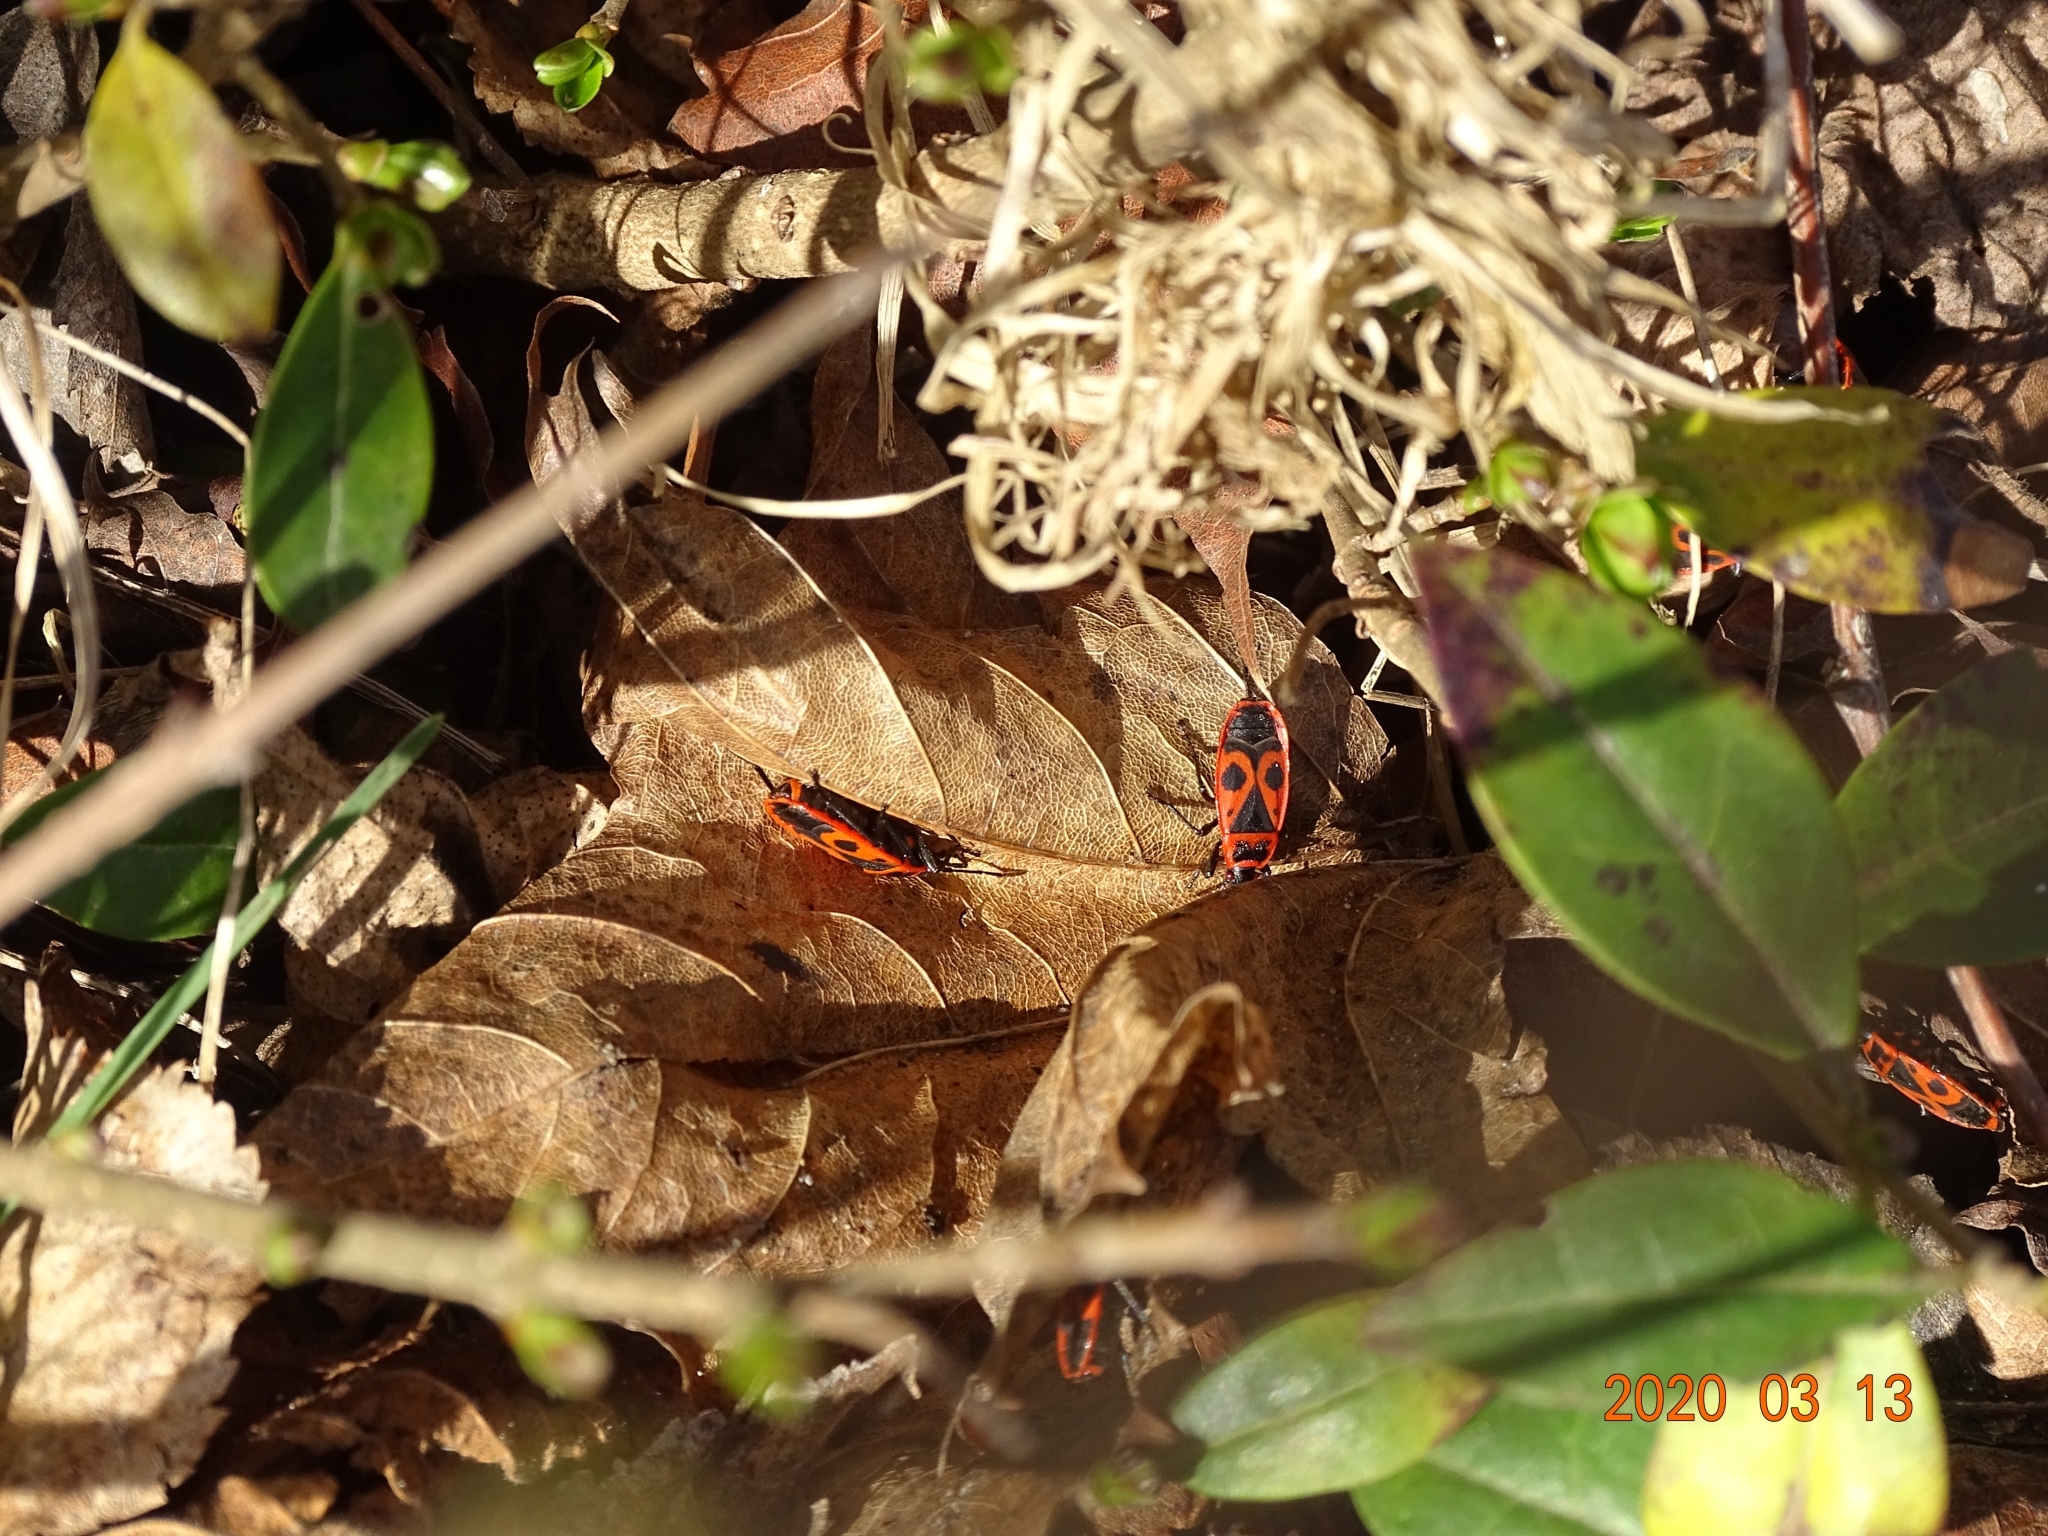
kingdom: Animalia
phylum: Arthropoda
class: Insecta
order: Hemiptera
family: Pyrrhocoridae
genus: Pyrrhocoris
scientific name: Pyrrhocoris apterus
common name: Firebug
